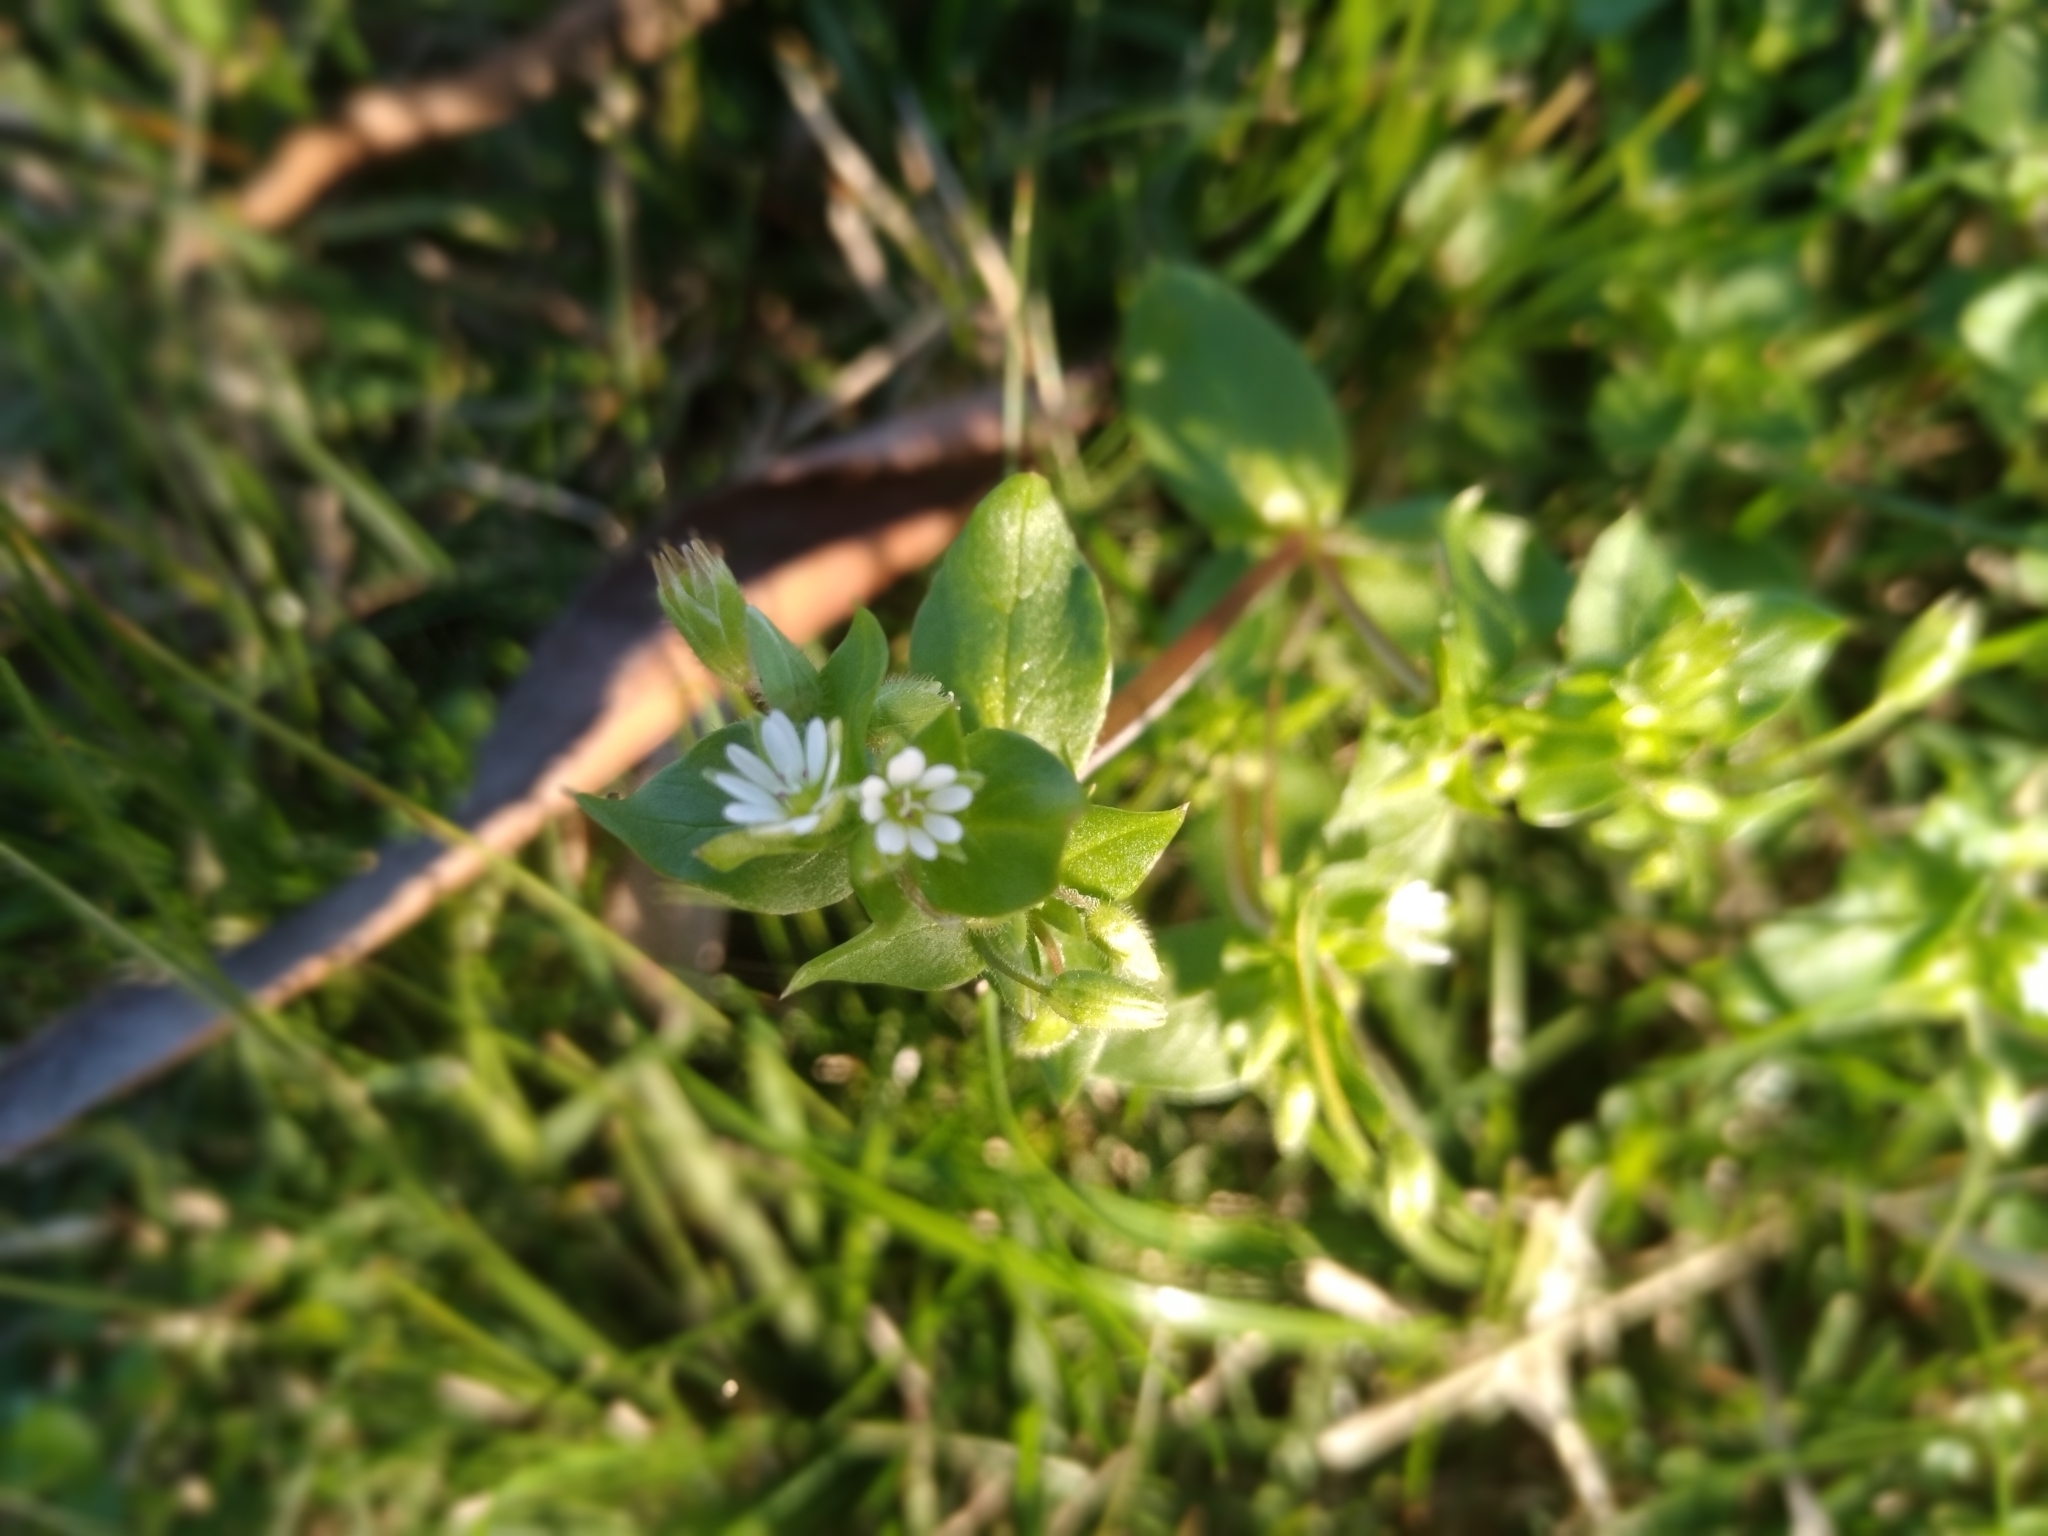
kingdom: Plantae
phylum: Tracheophyta
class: Magnoliopsida
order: Caryophyllales
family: Caryophyllaceae
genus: Stellaria
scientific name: Stellaria media
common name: Common chickweed
